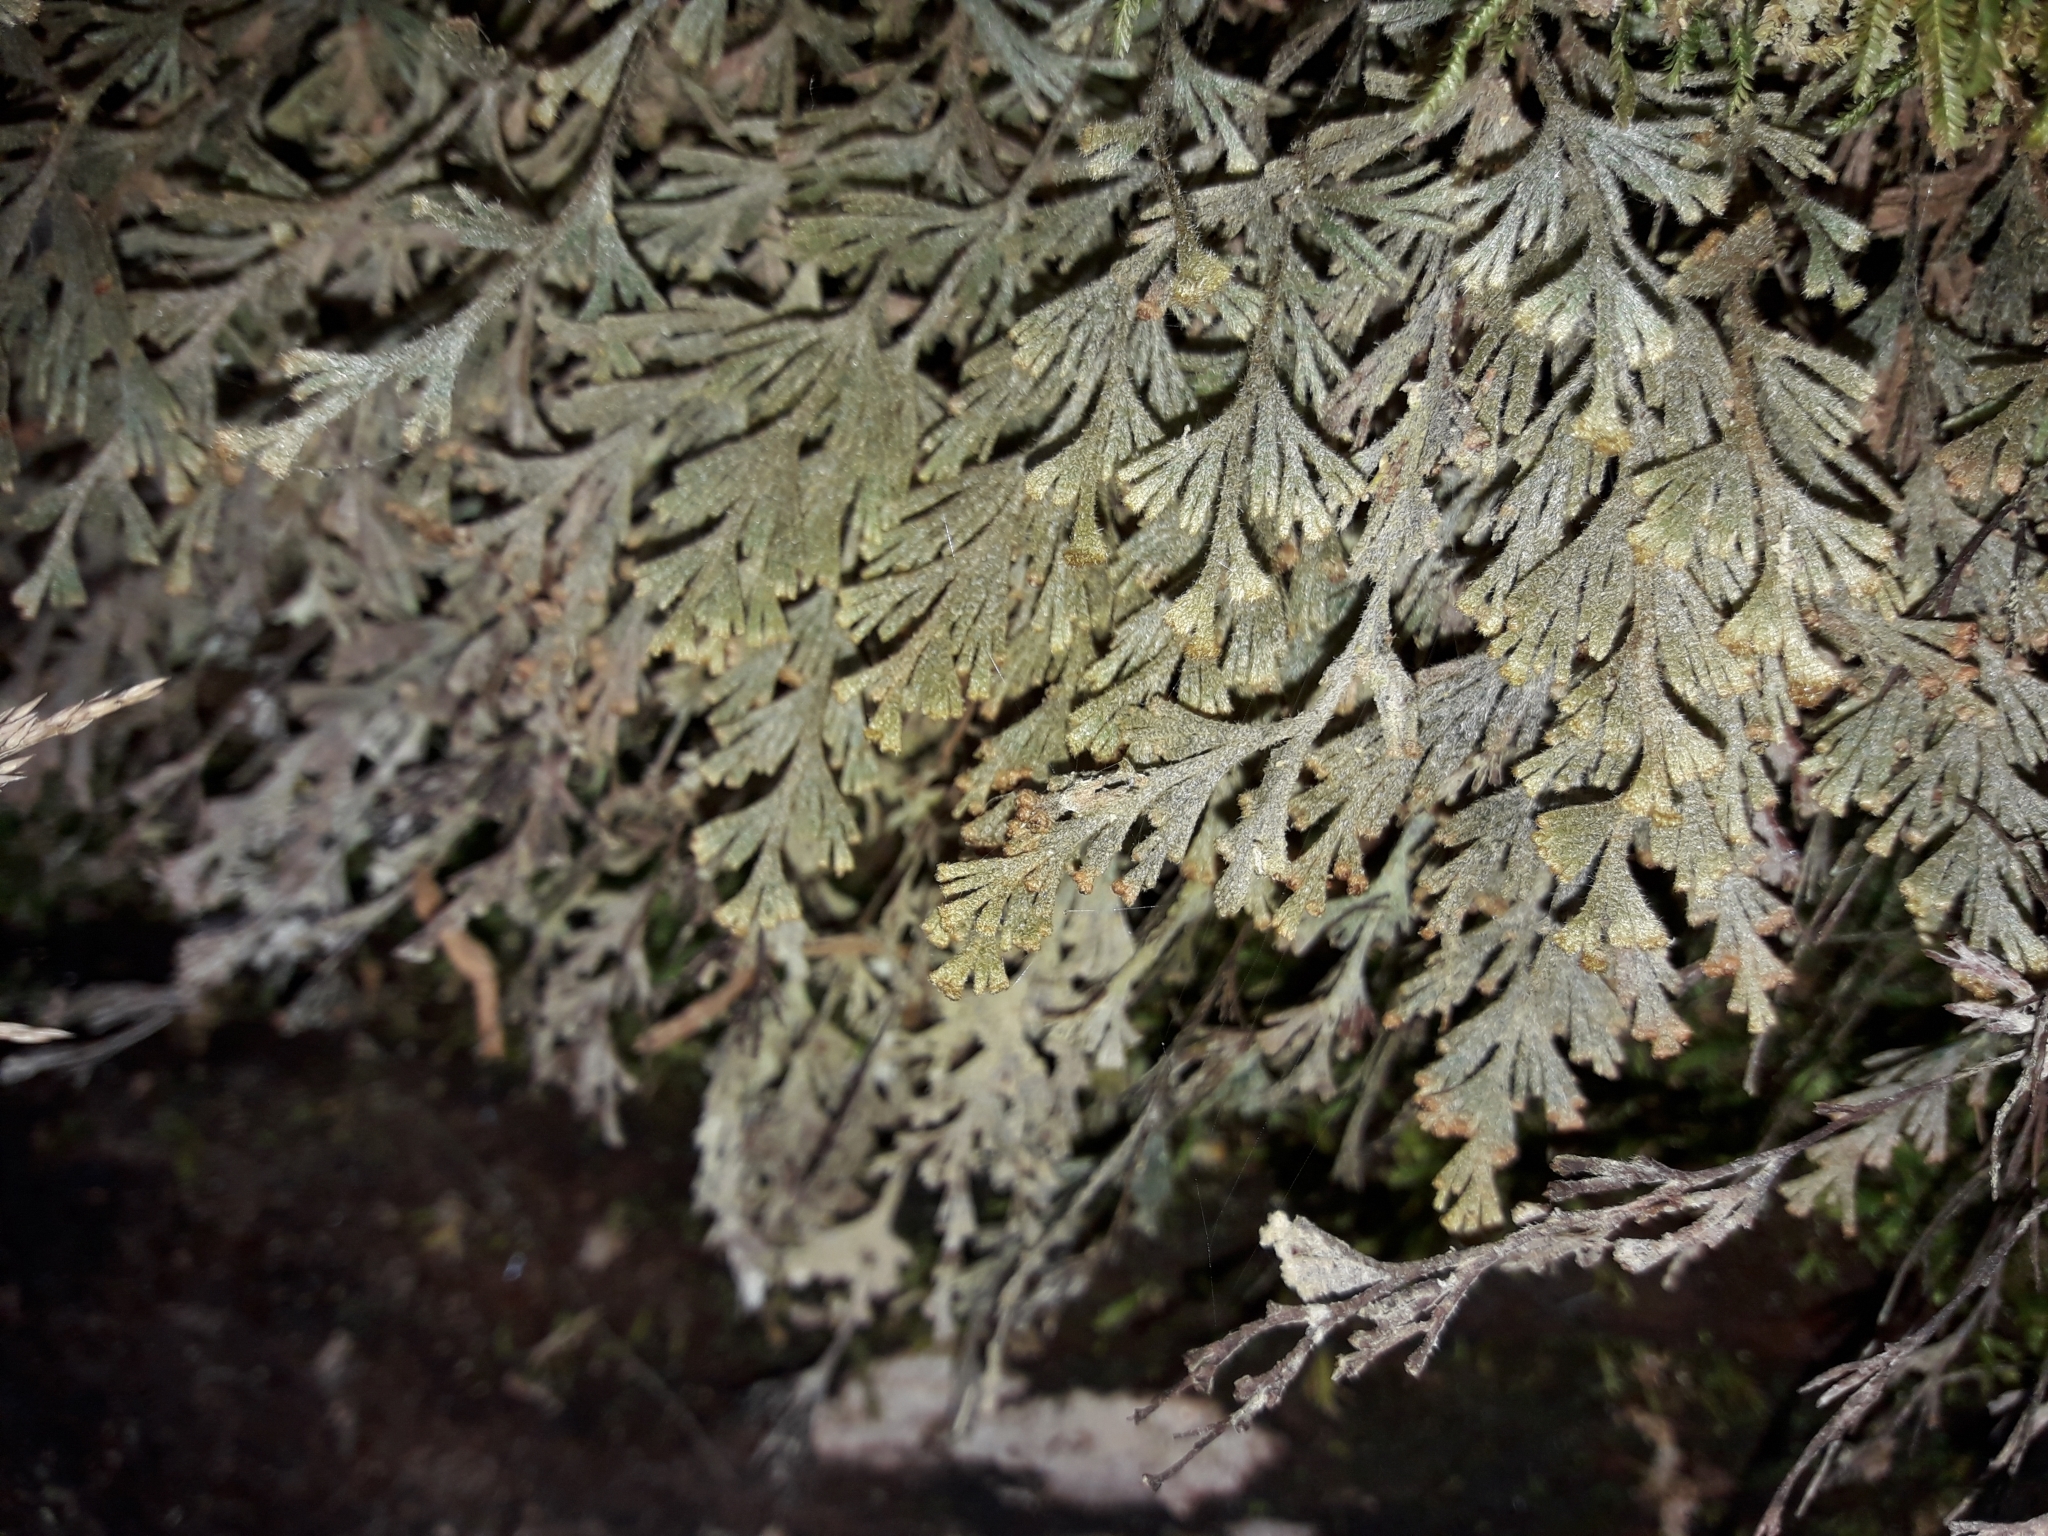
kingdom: Plantae
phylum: Tracheophyta
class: Polypodiopsida
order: Hymenophyllales
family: Hymenophyllaceae
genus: Hymenophyllum
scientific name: Hymenophyllum malingii
